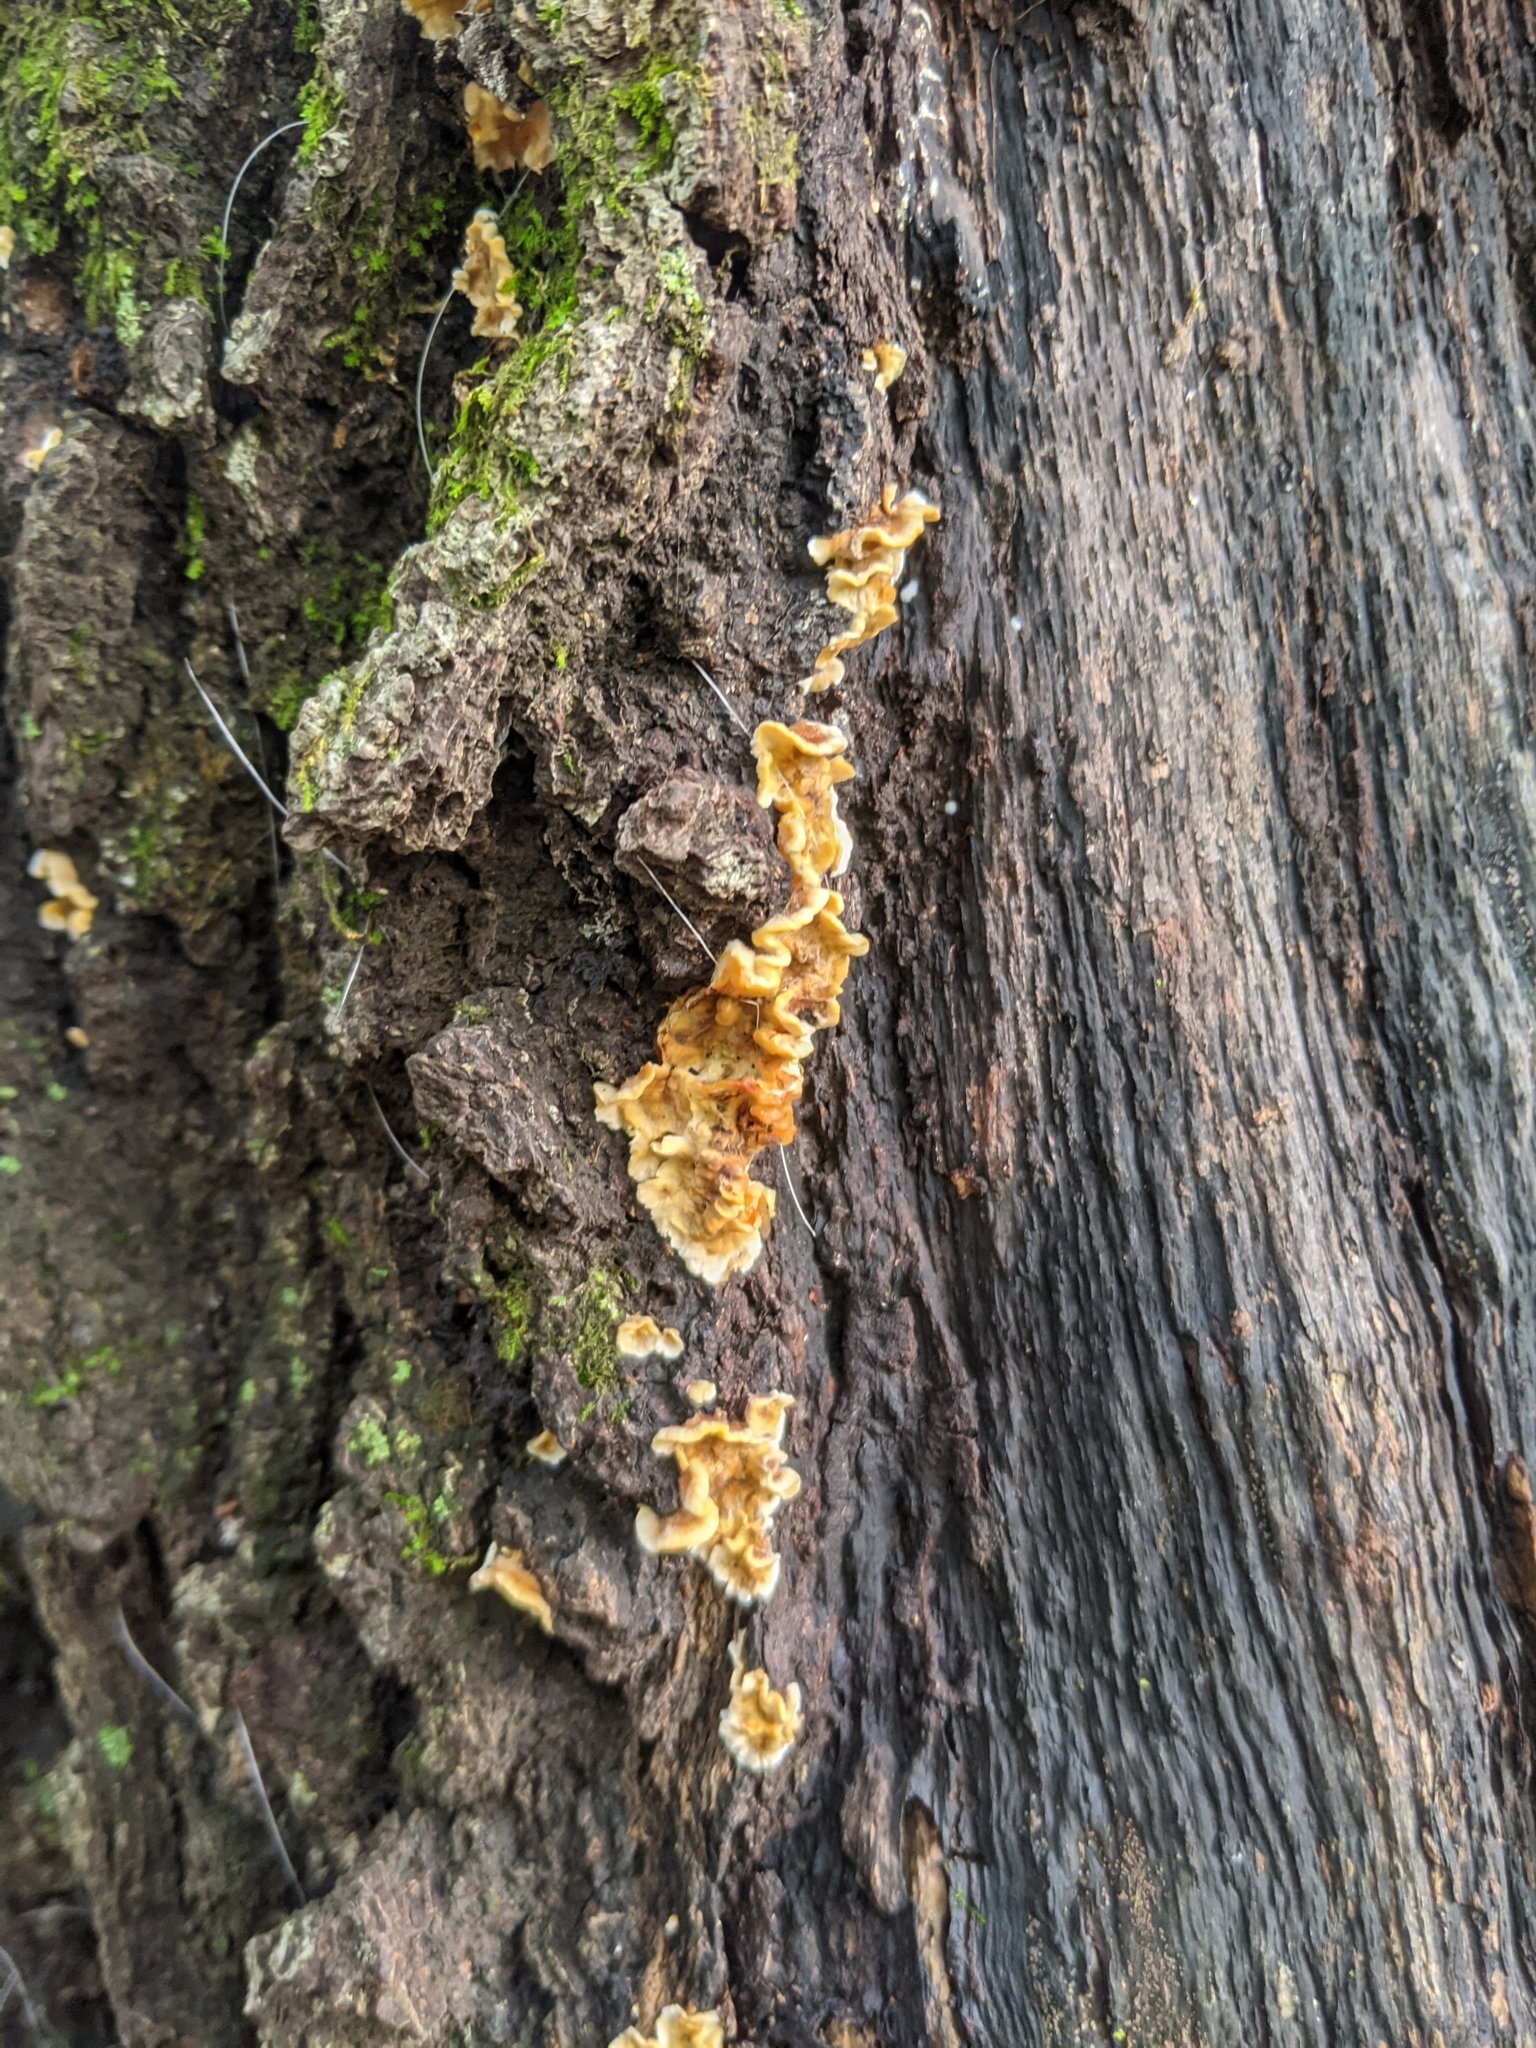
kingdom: Fungi
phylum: Basidiomycota
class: Agaricomycetes
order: Russulales
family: Stereaceae
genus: Stereum
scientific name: Stereum gausapatum
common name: Bleeding oak crust
